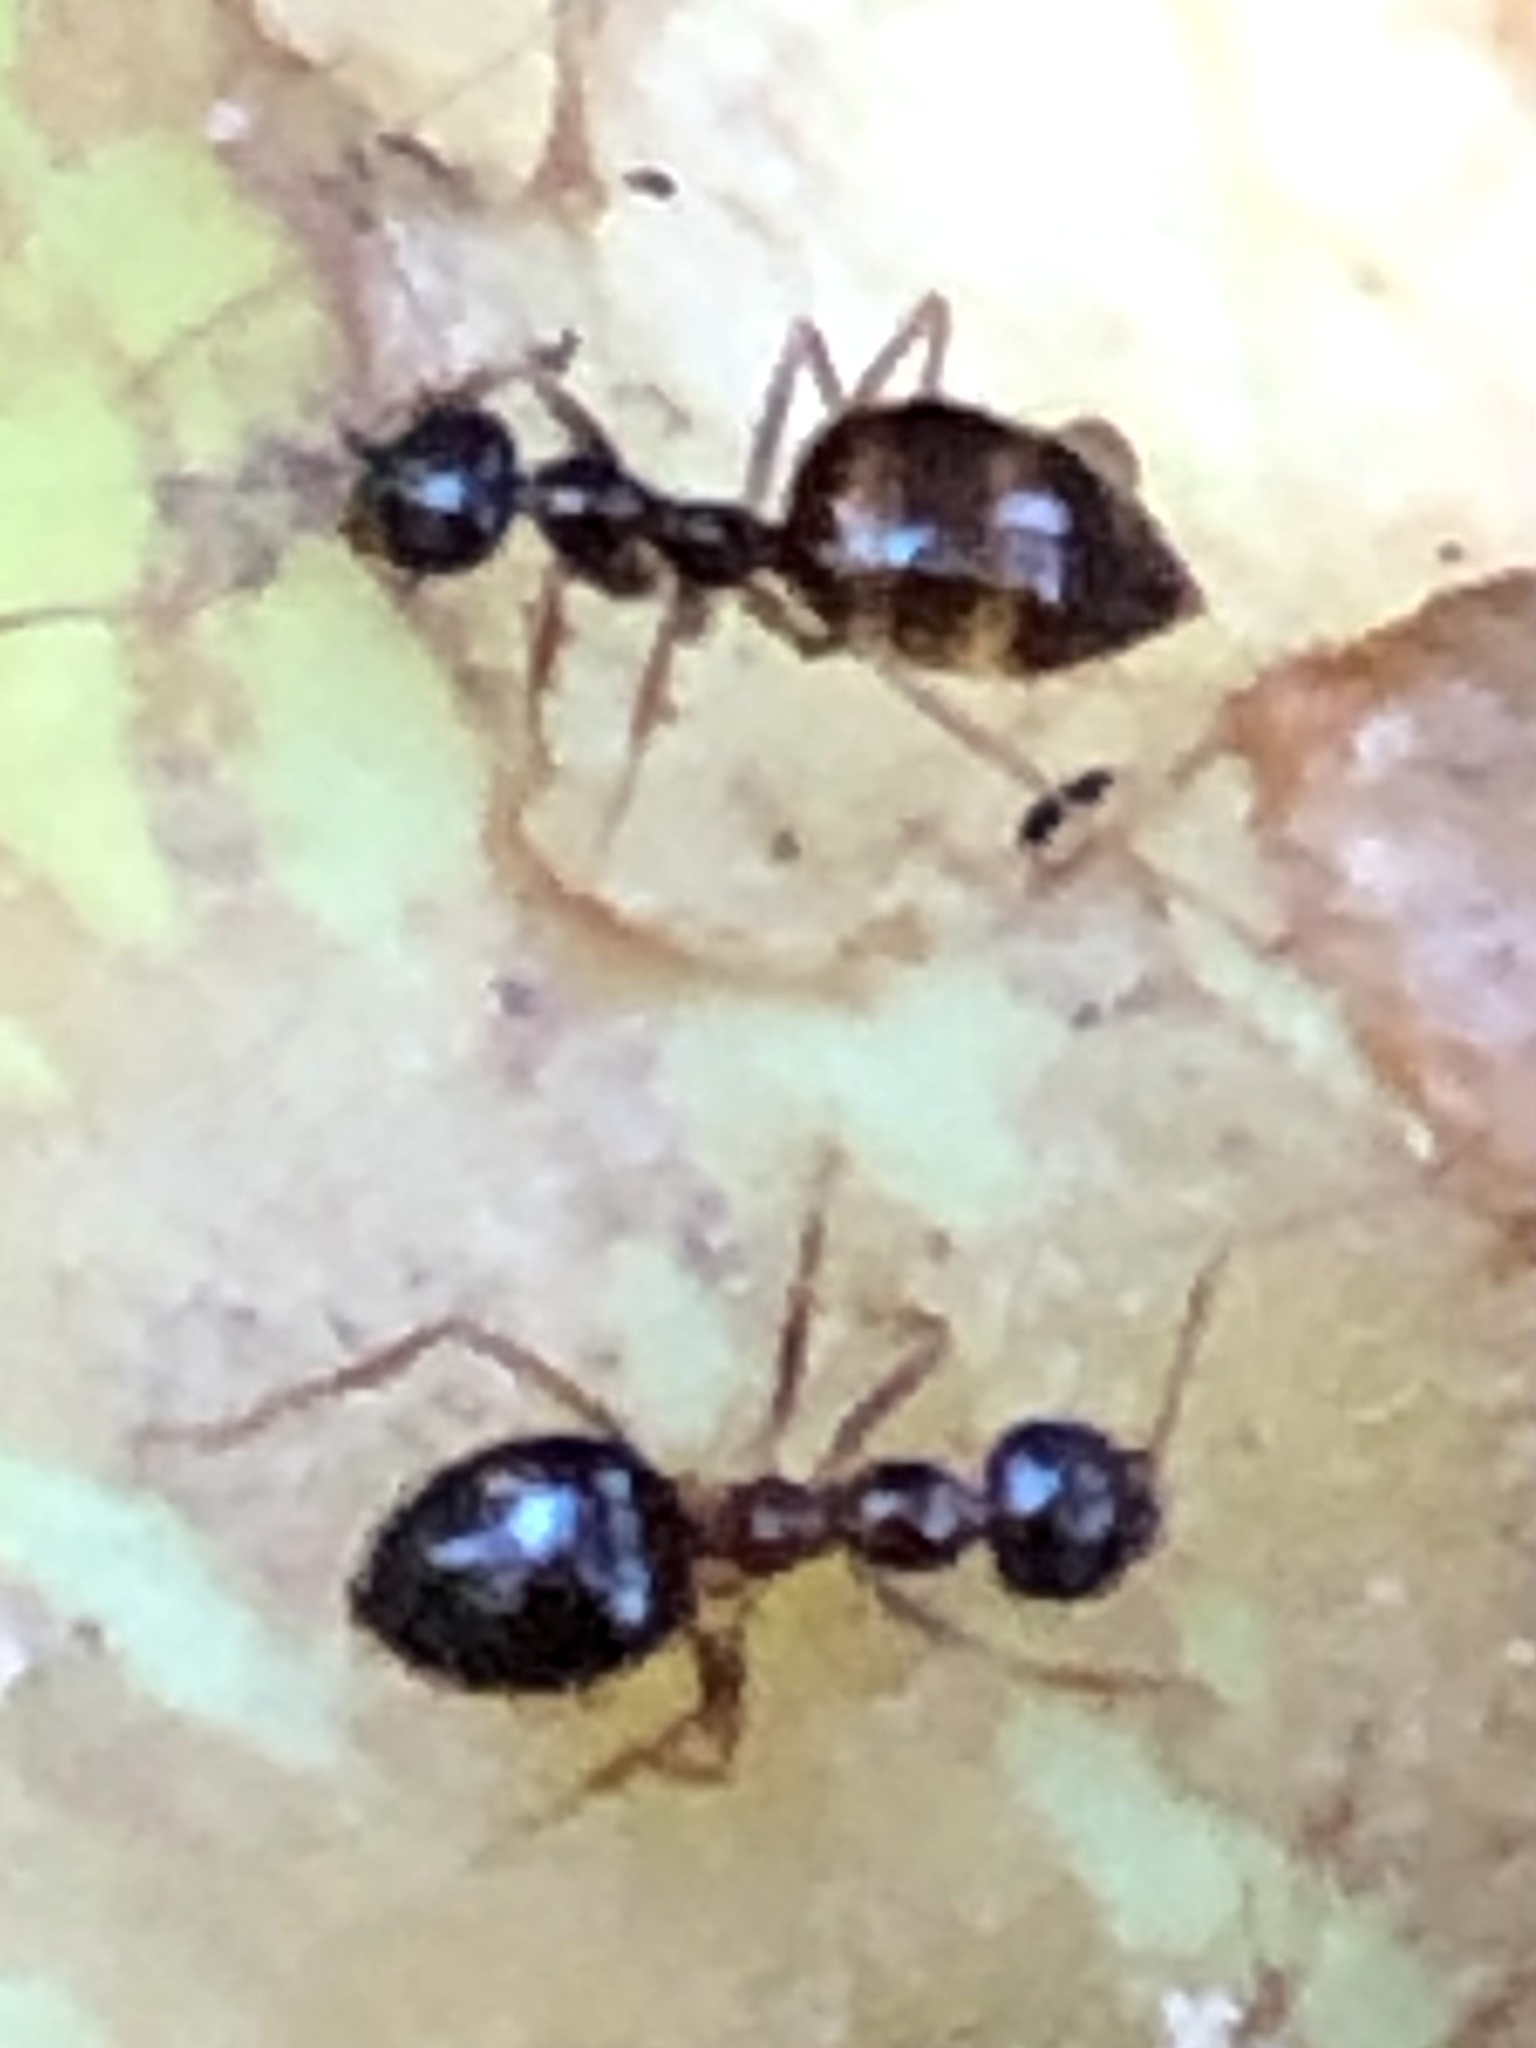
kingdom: Animalia
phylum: Arthropoda
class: Insecta
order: Hymenoptera
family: Formicidae
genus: Prenolepis
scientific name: Prenolepis imparis
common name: Small honey ant
